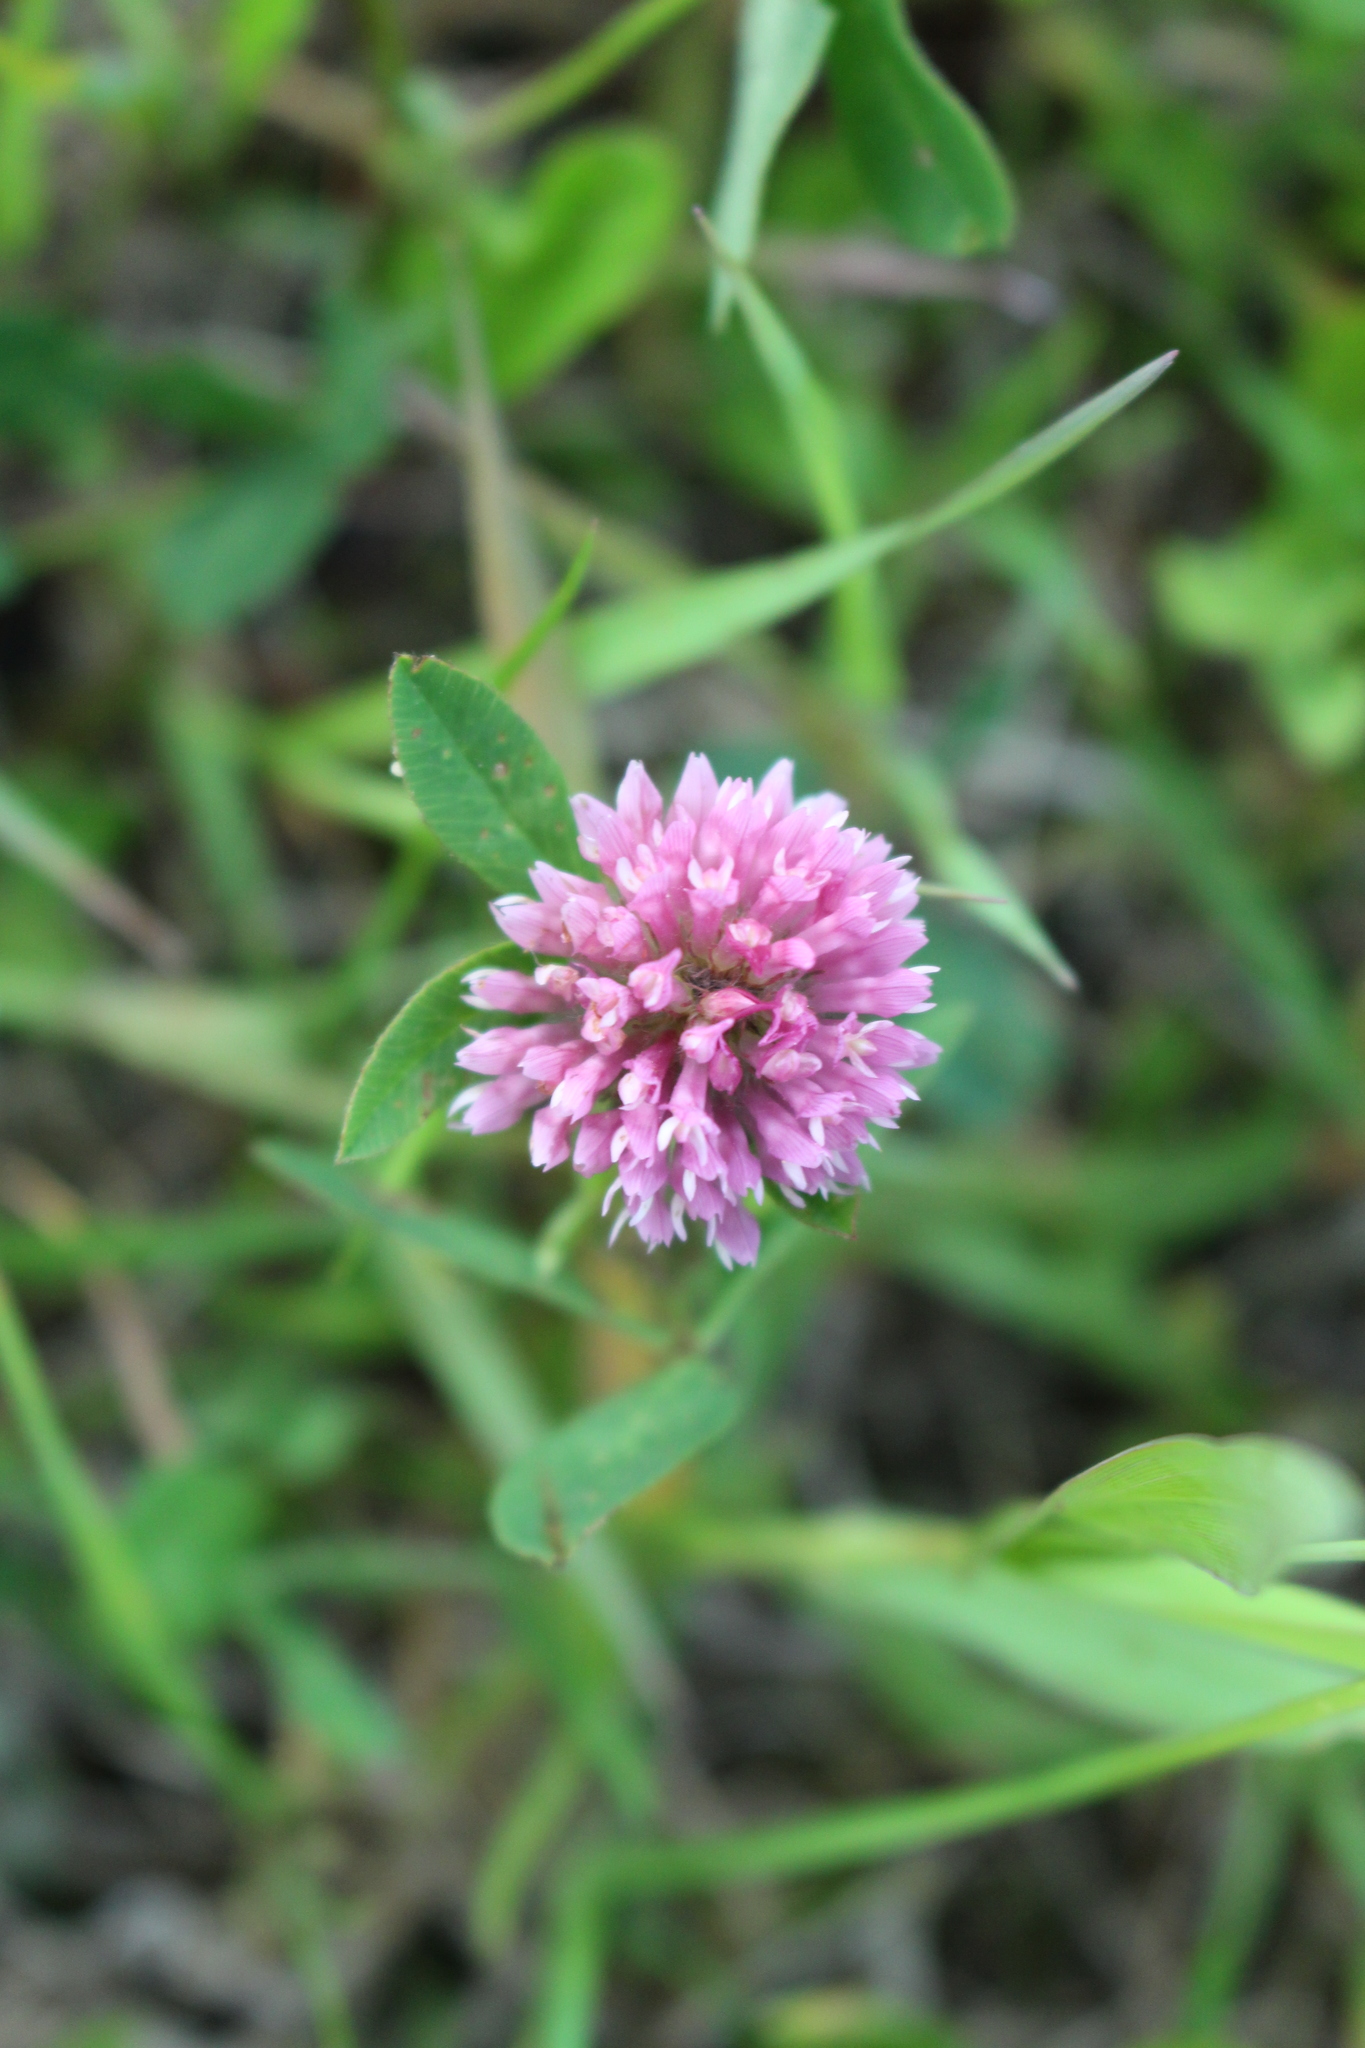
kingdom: Plantae
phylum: Tracheophyta
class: Magnoliopsida
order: Fabales
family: Fabaceae
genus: Trifolium
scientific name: Trifolium pratense
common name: Red clover
